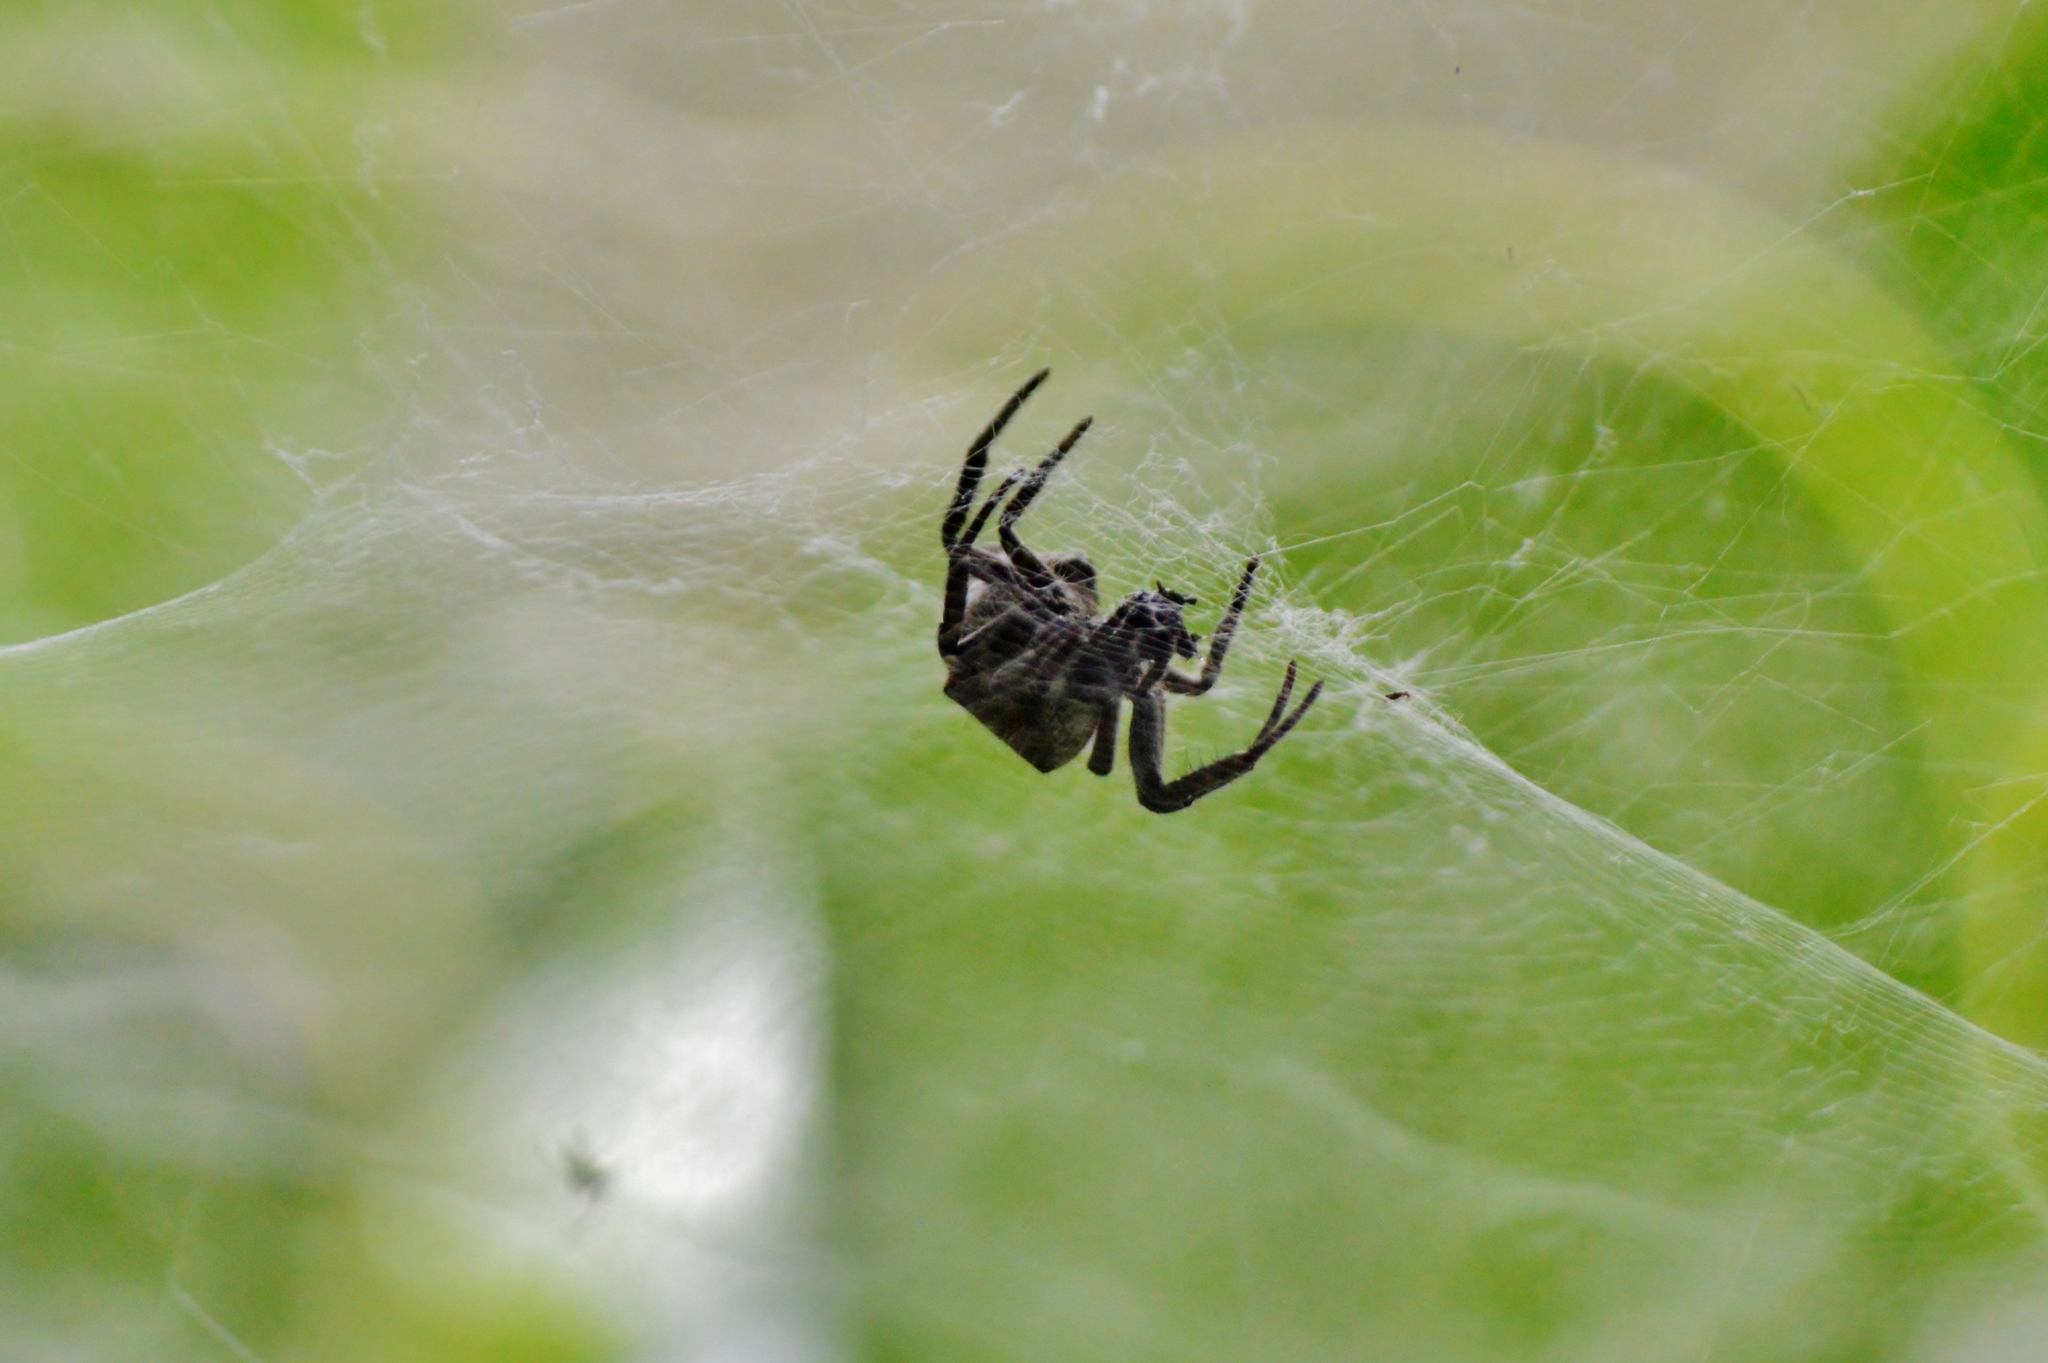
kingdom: Animalia
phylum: Arthropoda
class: Arachnida
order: Araneae
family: Araneidae
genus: Cyrtophora
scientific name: Cyrtophora citricola
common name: Orb weavers
